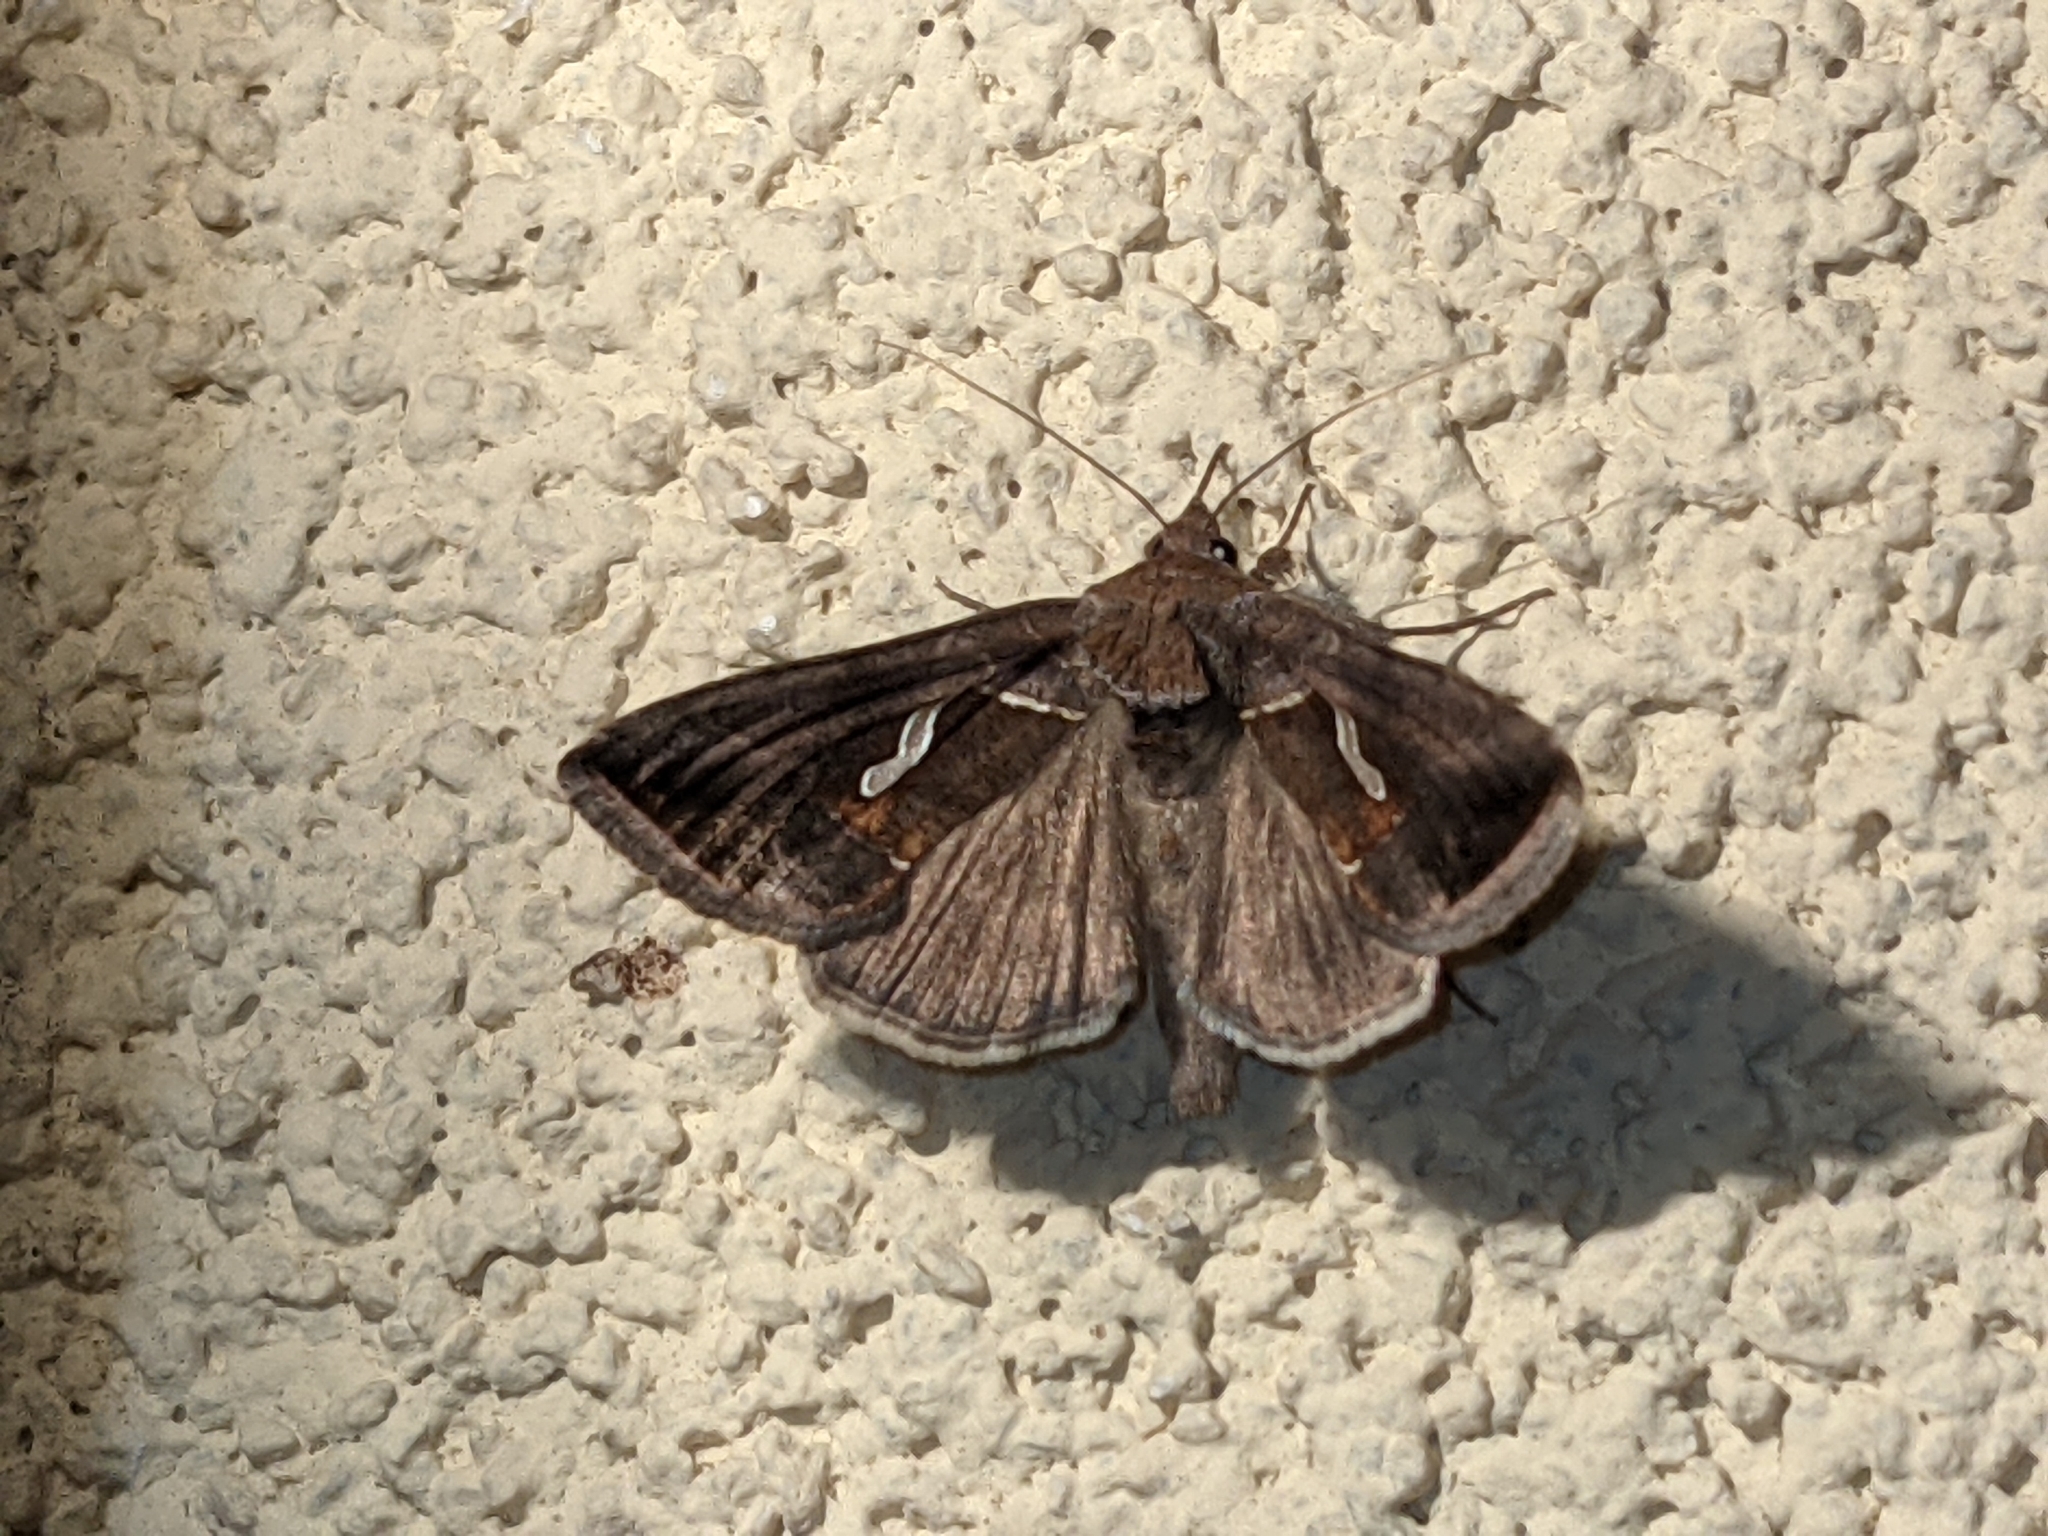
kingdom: Animalia
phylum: Arthropoda
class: Insecta
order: Lepidoptera
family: Noctuidae
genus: Macdunnoughia
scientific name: Macdunnoughia confusa
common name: Dewick's plusia
